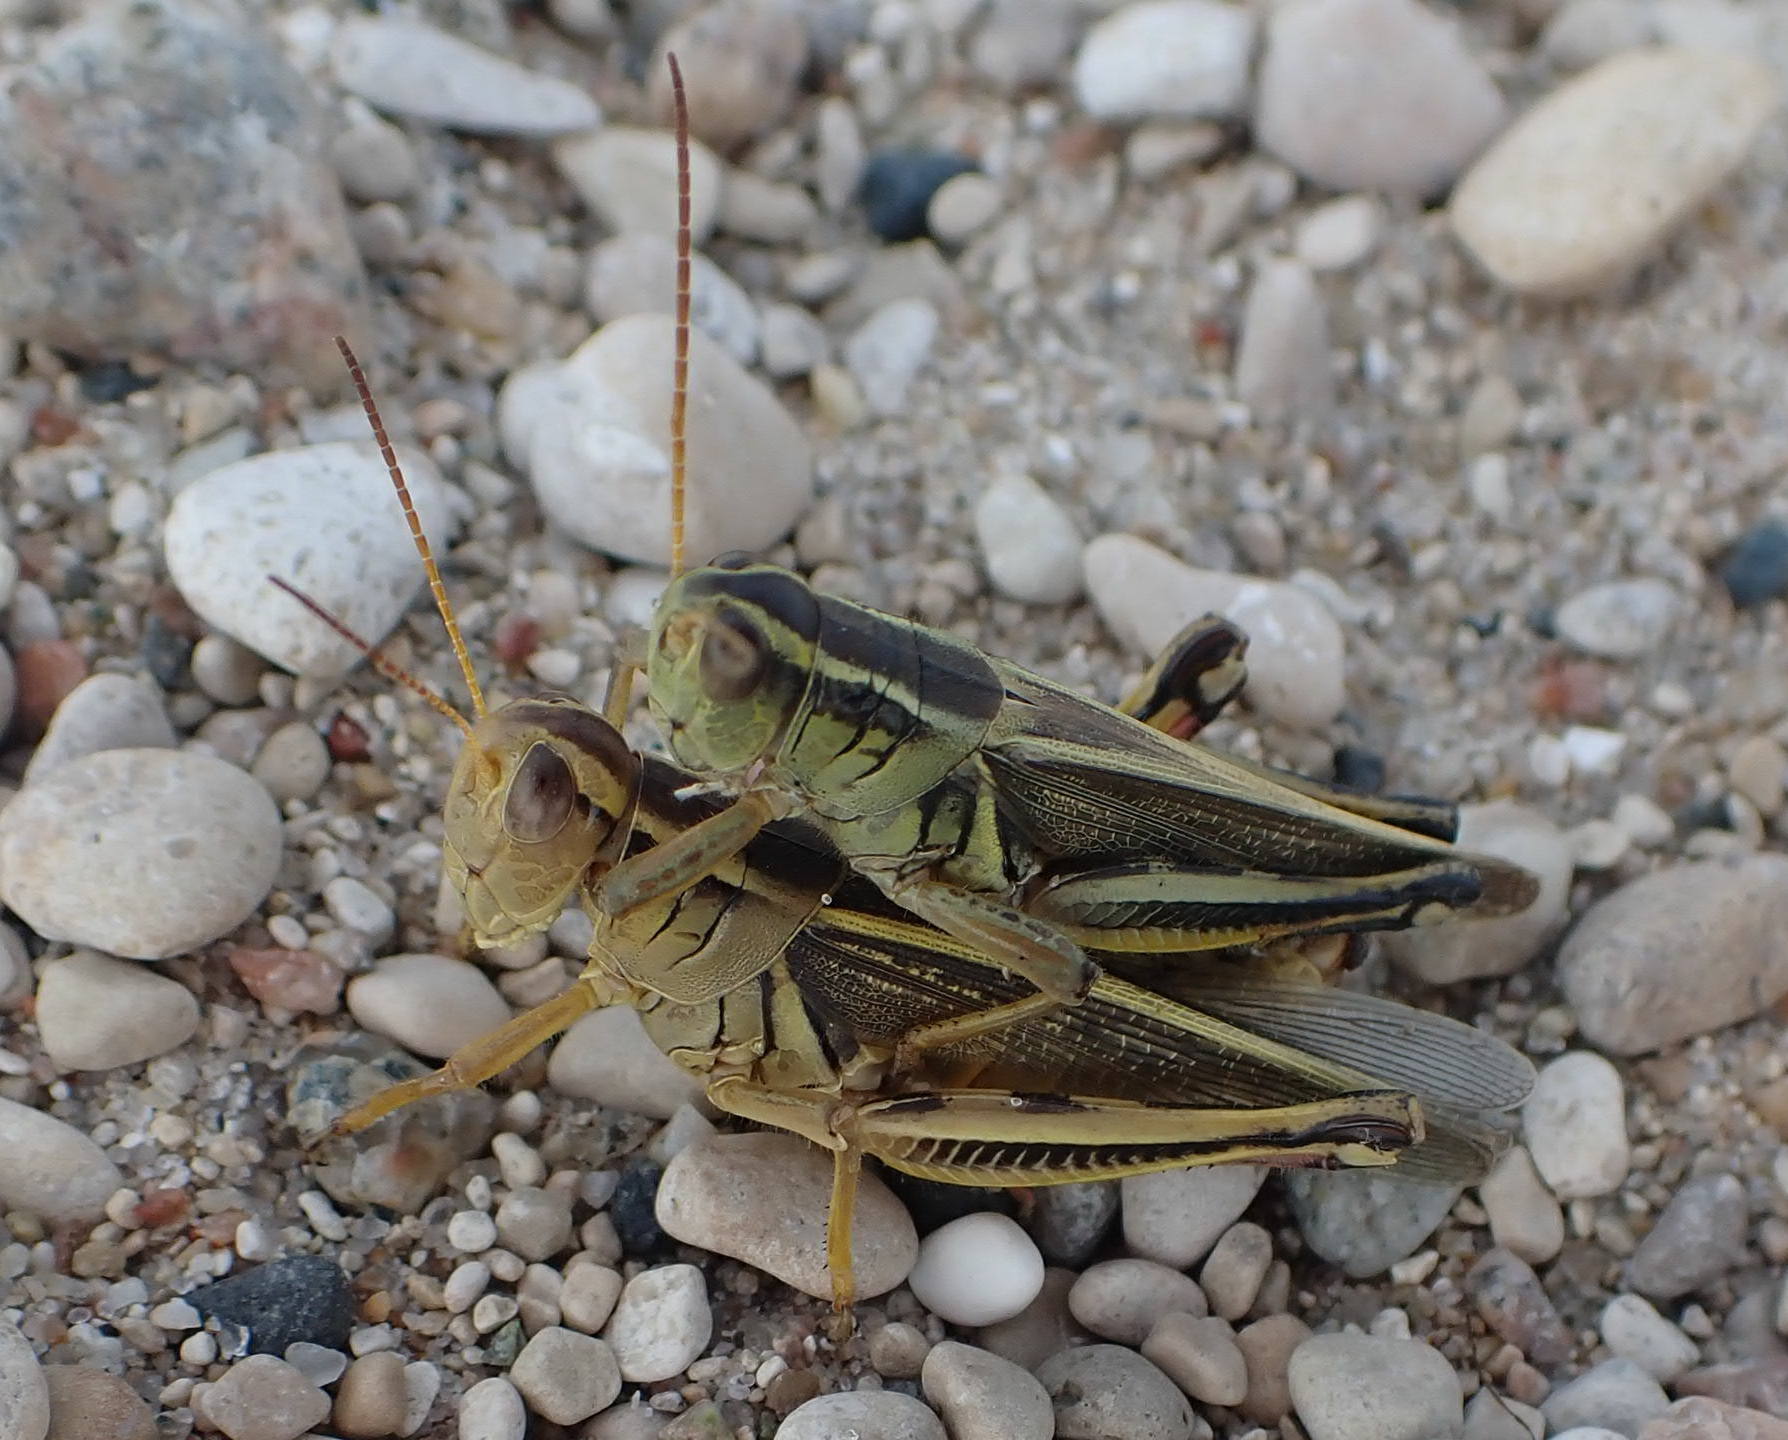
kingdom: Animalia
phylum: Arthropoda
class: Insecta
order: Orthoptera
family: Acrididae
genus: Melanoplus
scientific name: Melanoplus bivittatus
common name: Two-striped grasshopper
